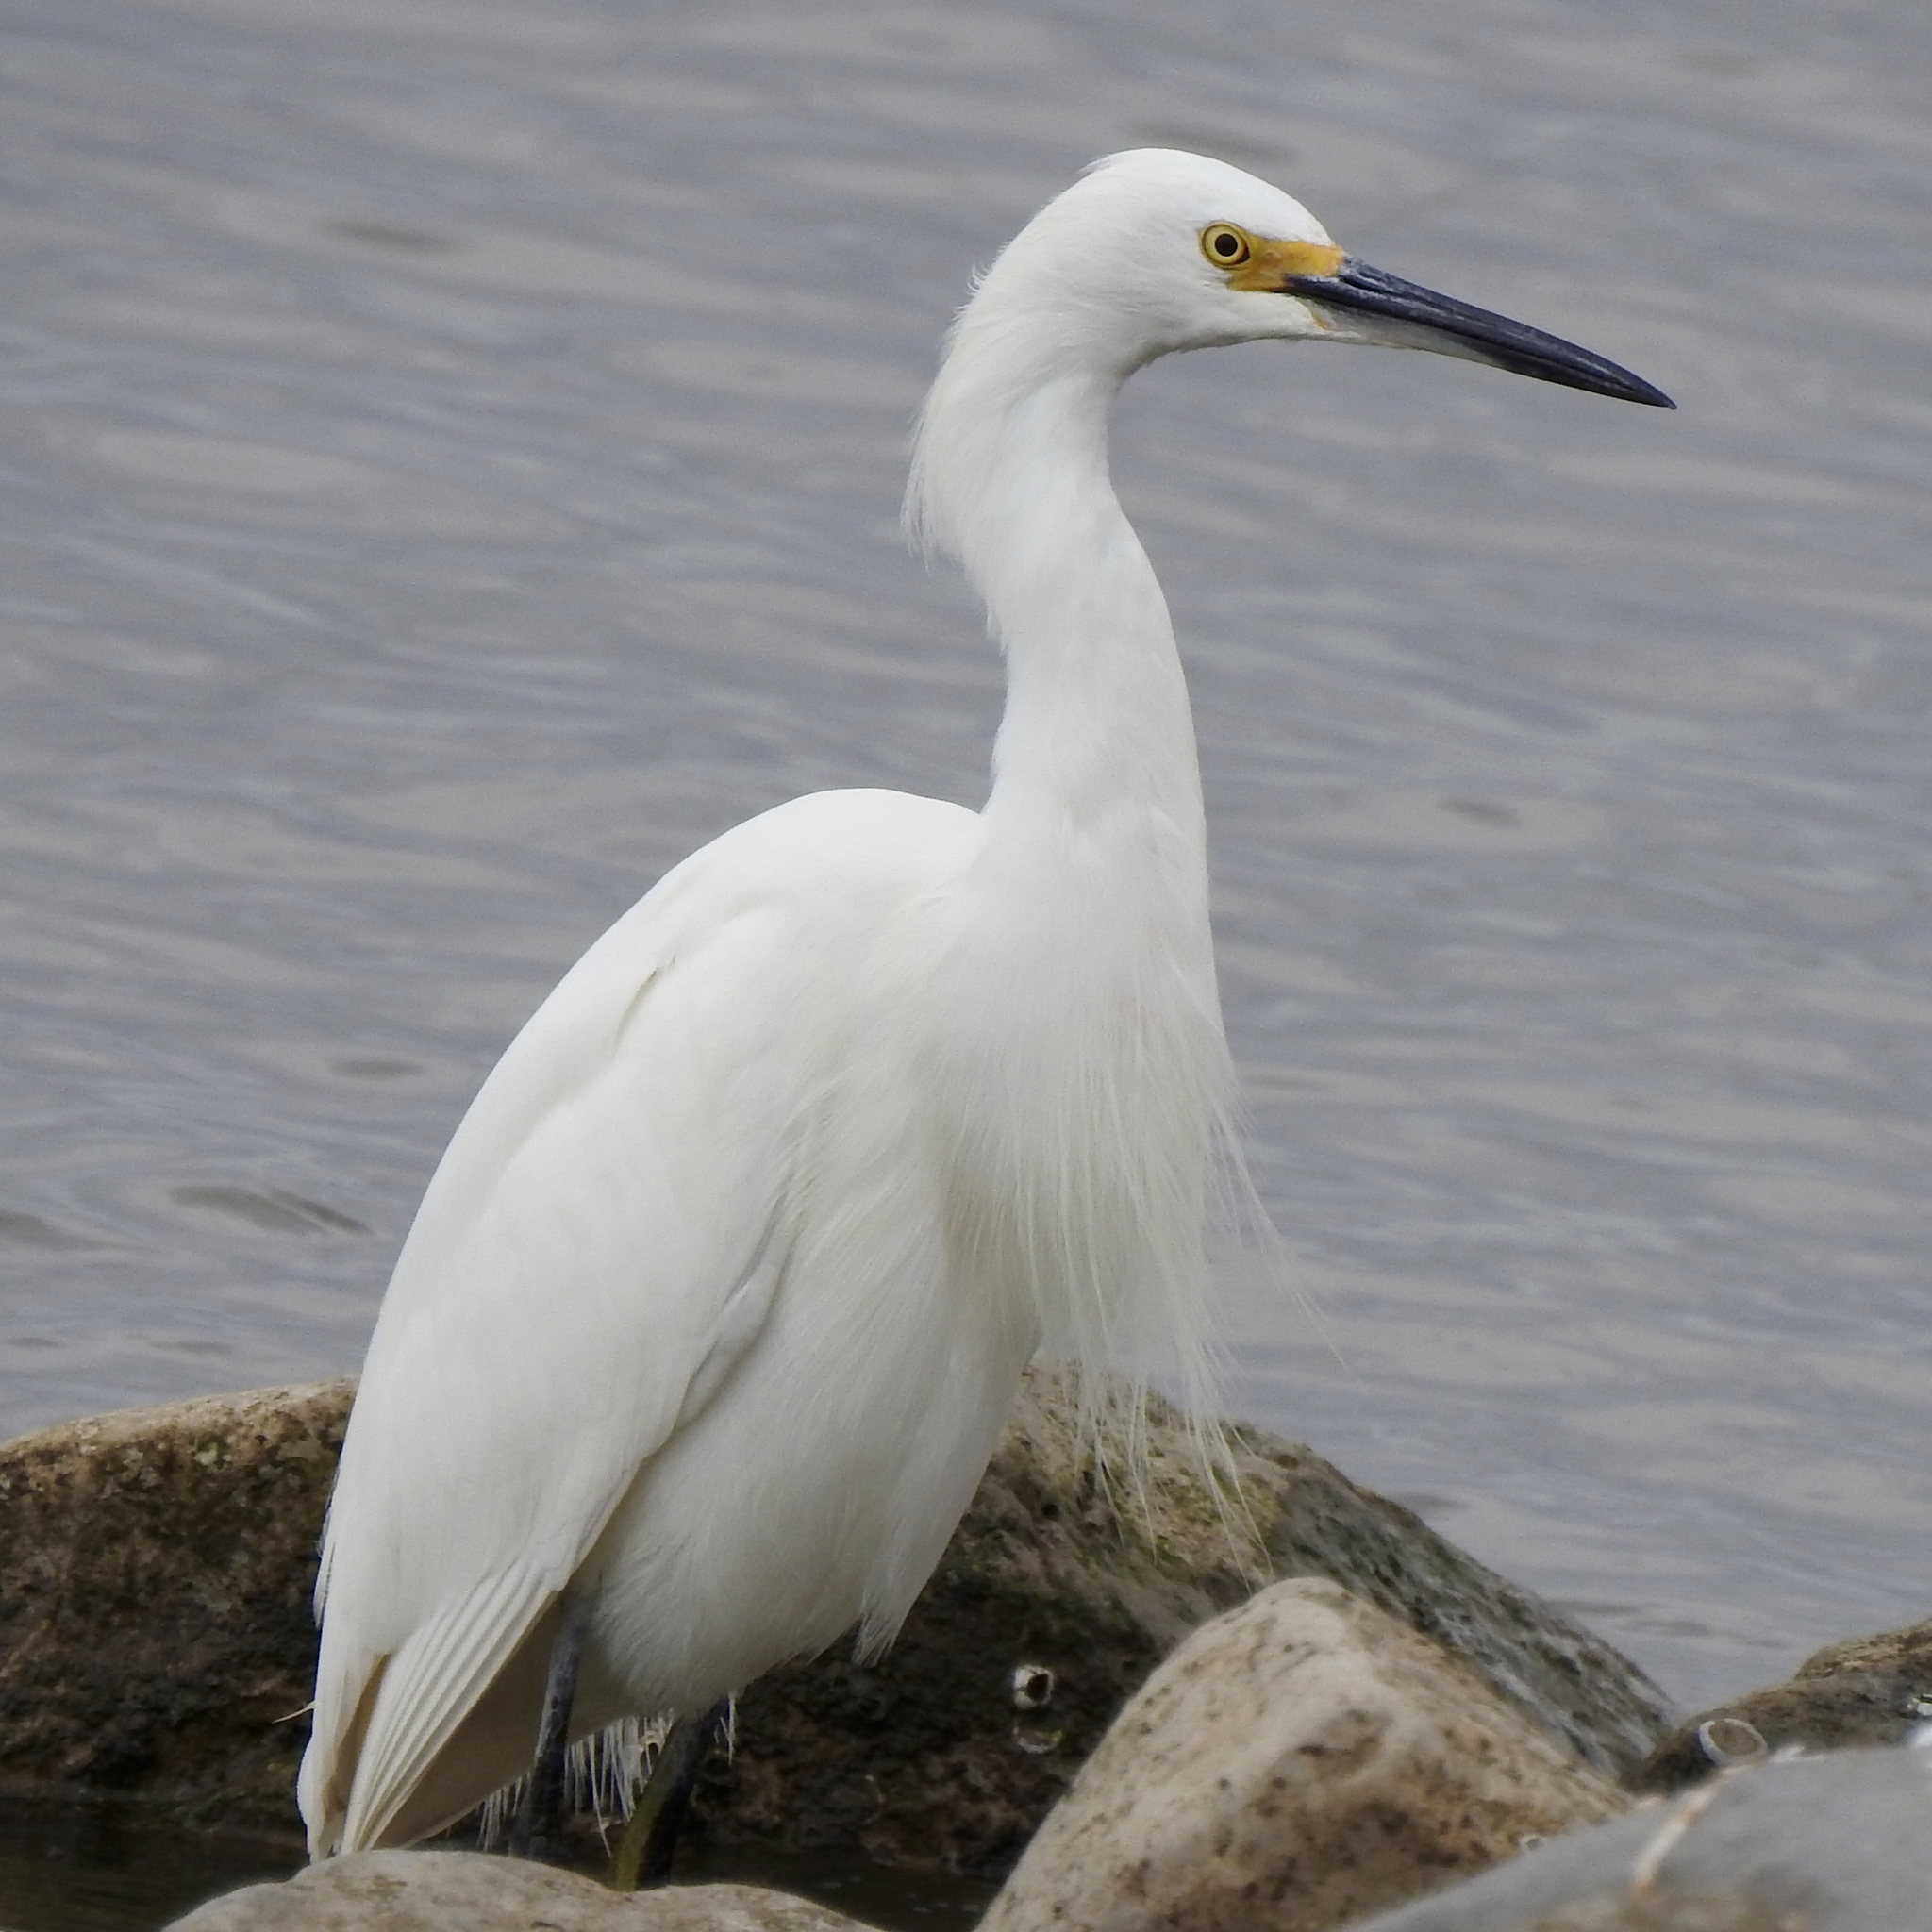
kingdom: Animalia
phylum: Chordata
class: Aves
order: Pelecaniformes
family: Ardeidae
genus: Egretta
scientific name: Egretta thula
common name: Snowy egret
